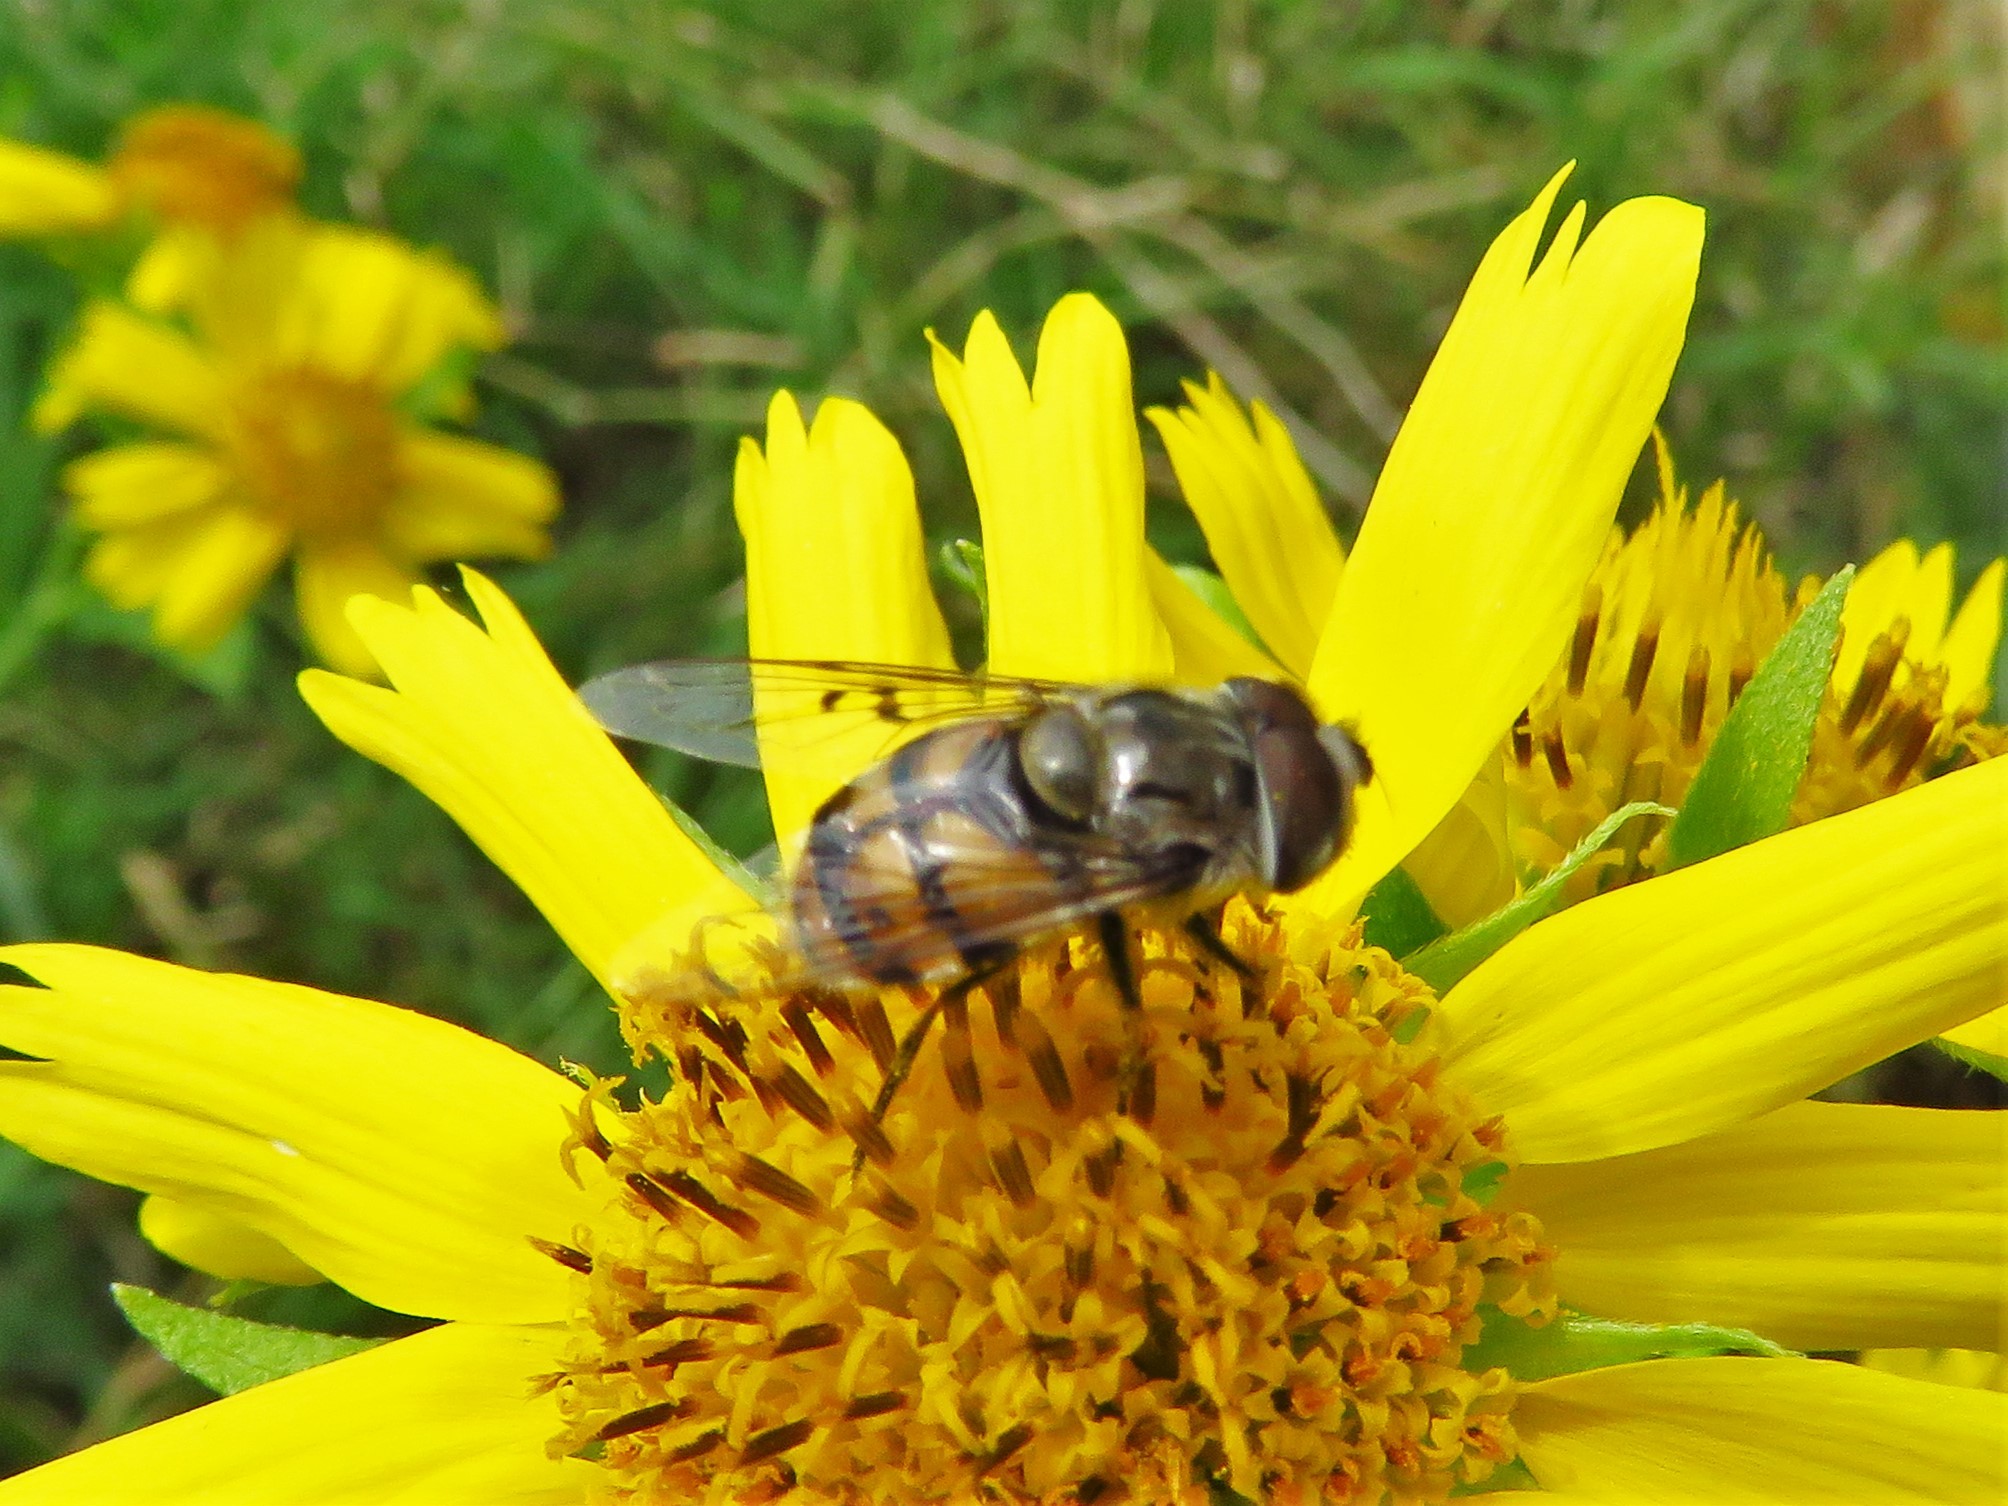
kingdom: Animalia
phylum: Arthropoda
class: Insecta
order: Diptera
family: Syrphidae
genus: Copestylum
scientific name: Copestylum avidum
